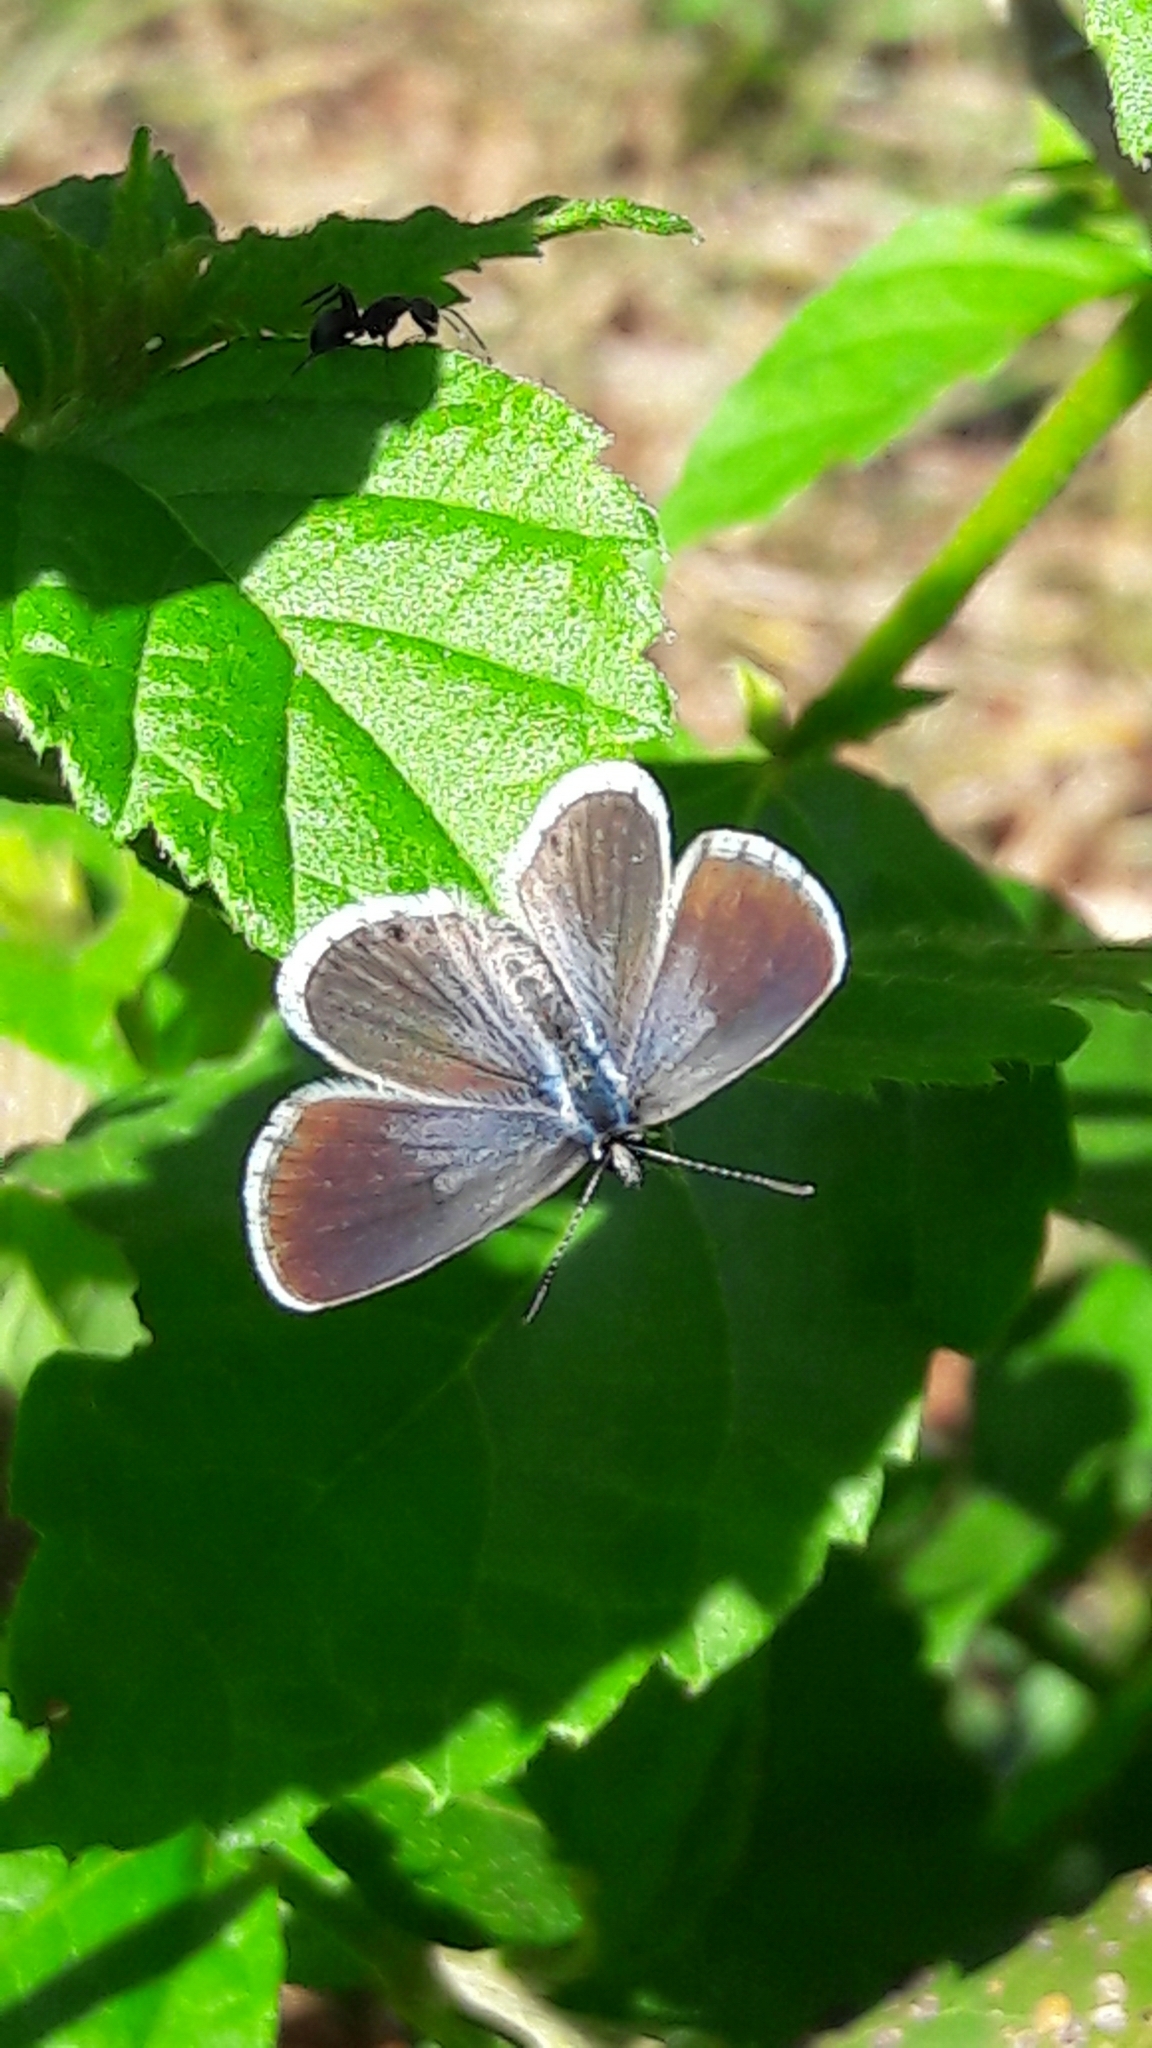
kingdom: Animalia
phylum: Arthropoda
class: Insecta
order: Lepidoptera
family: Lycaenidae
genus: Hemiargus
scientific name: Hemiargus hanno
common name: Common blue
